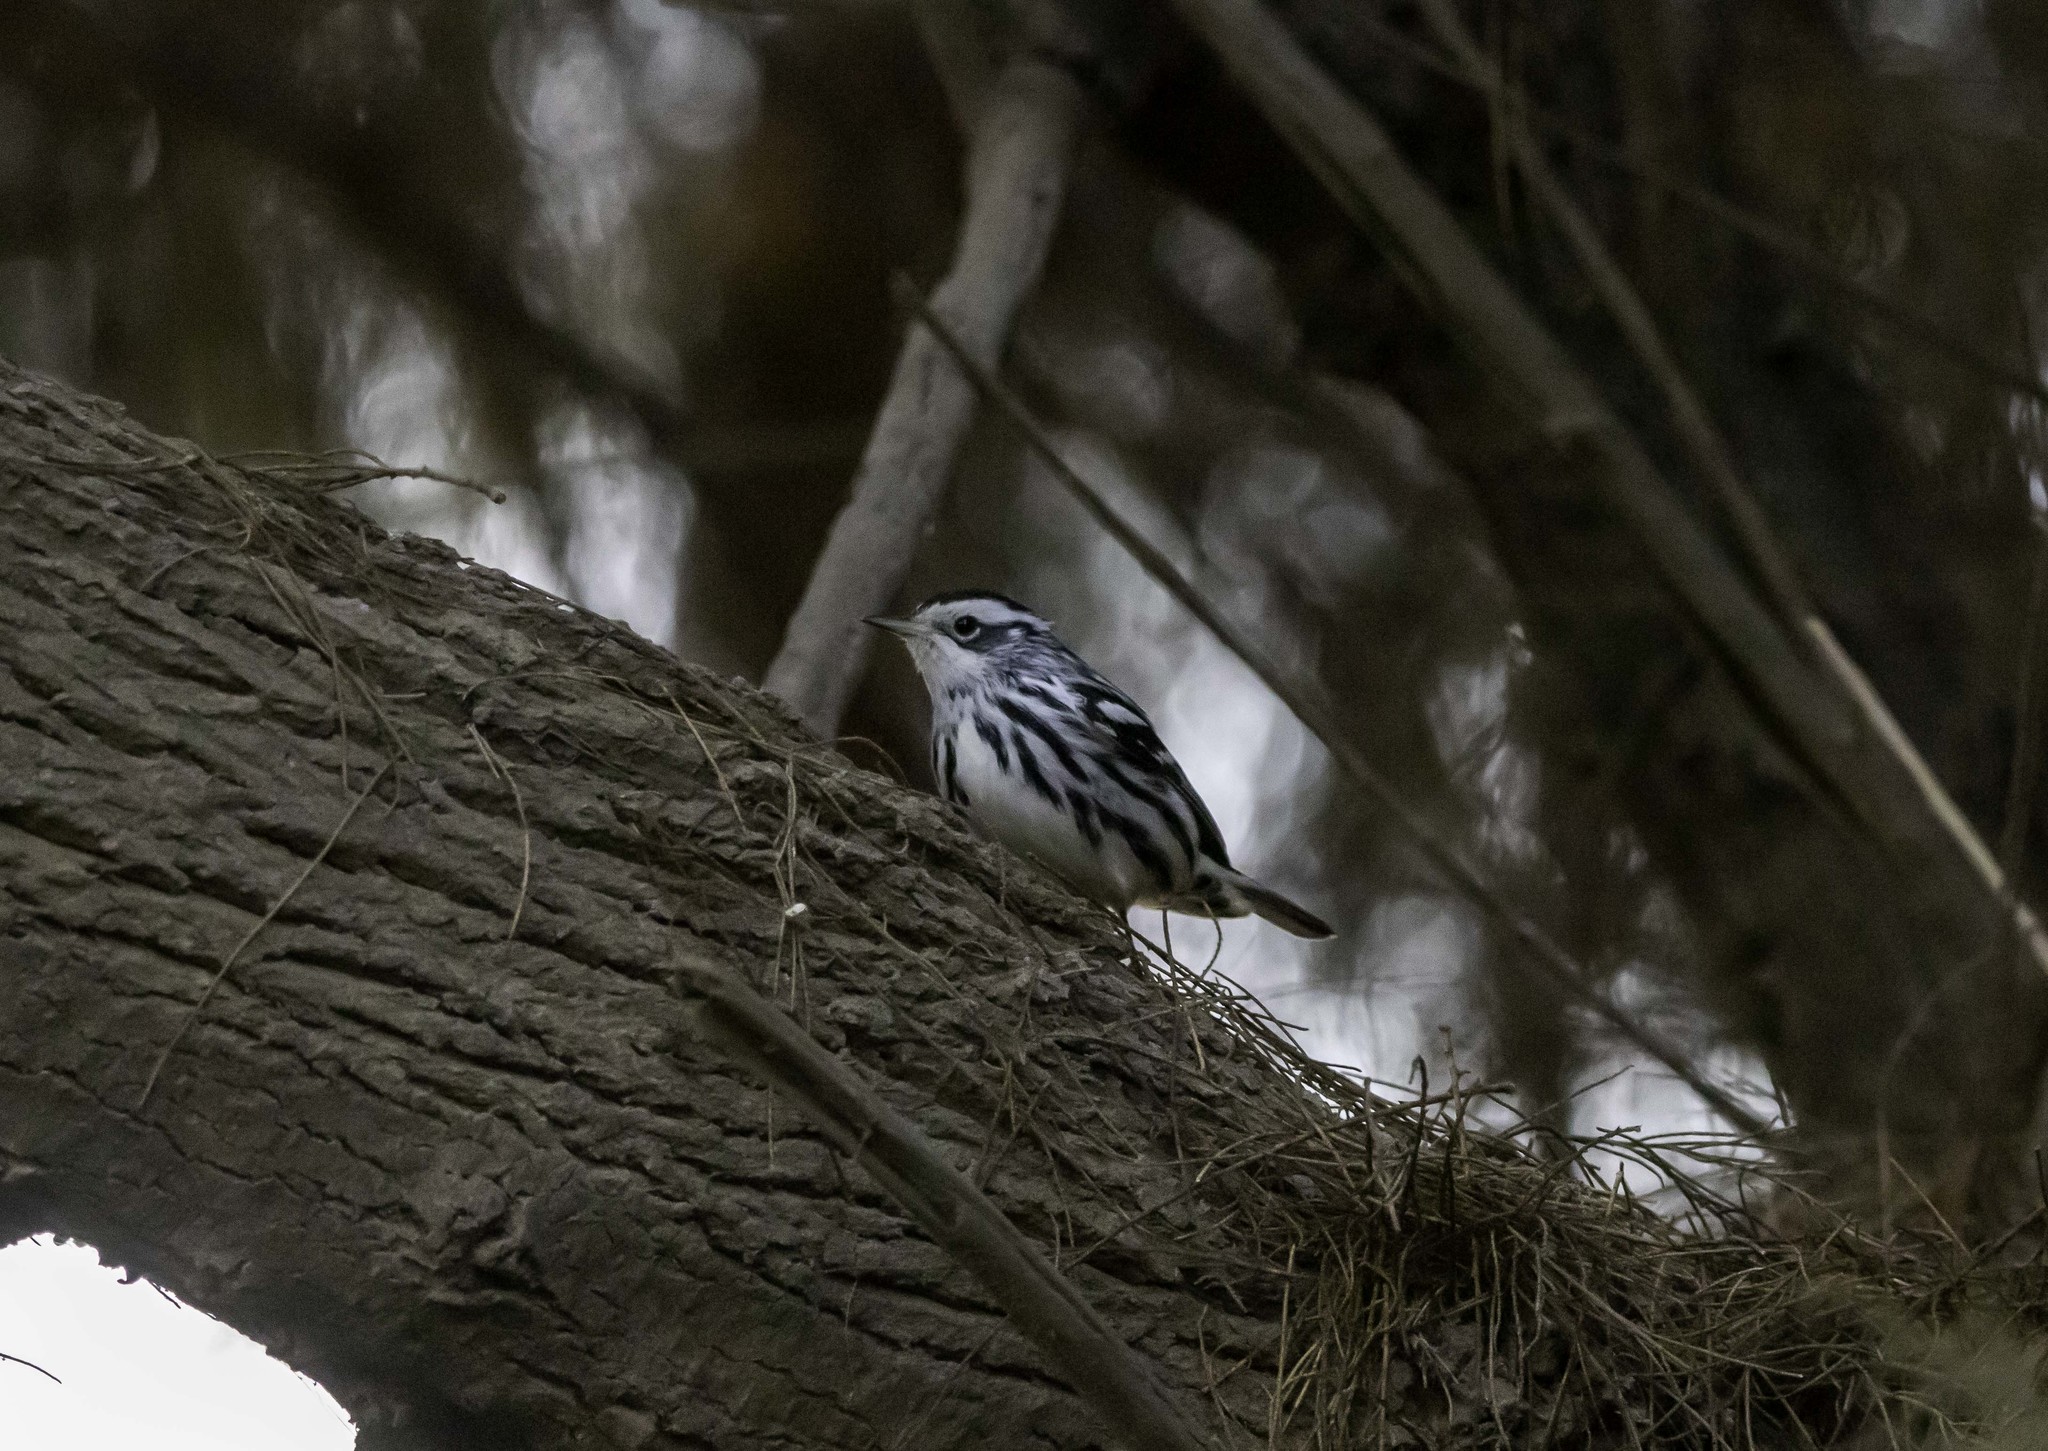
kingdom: Animalia
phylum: Chordata
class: Aves
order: Passeriformes
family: Parulidae
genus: Mniotilta
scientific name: Mniotilta varia
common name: Black-and-white warbler
